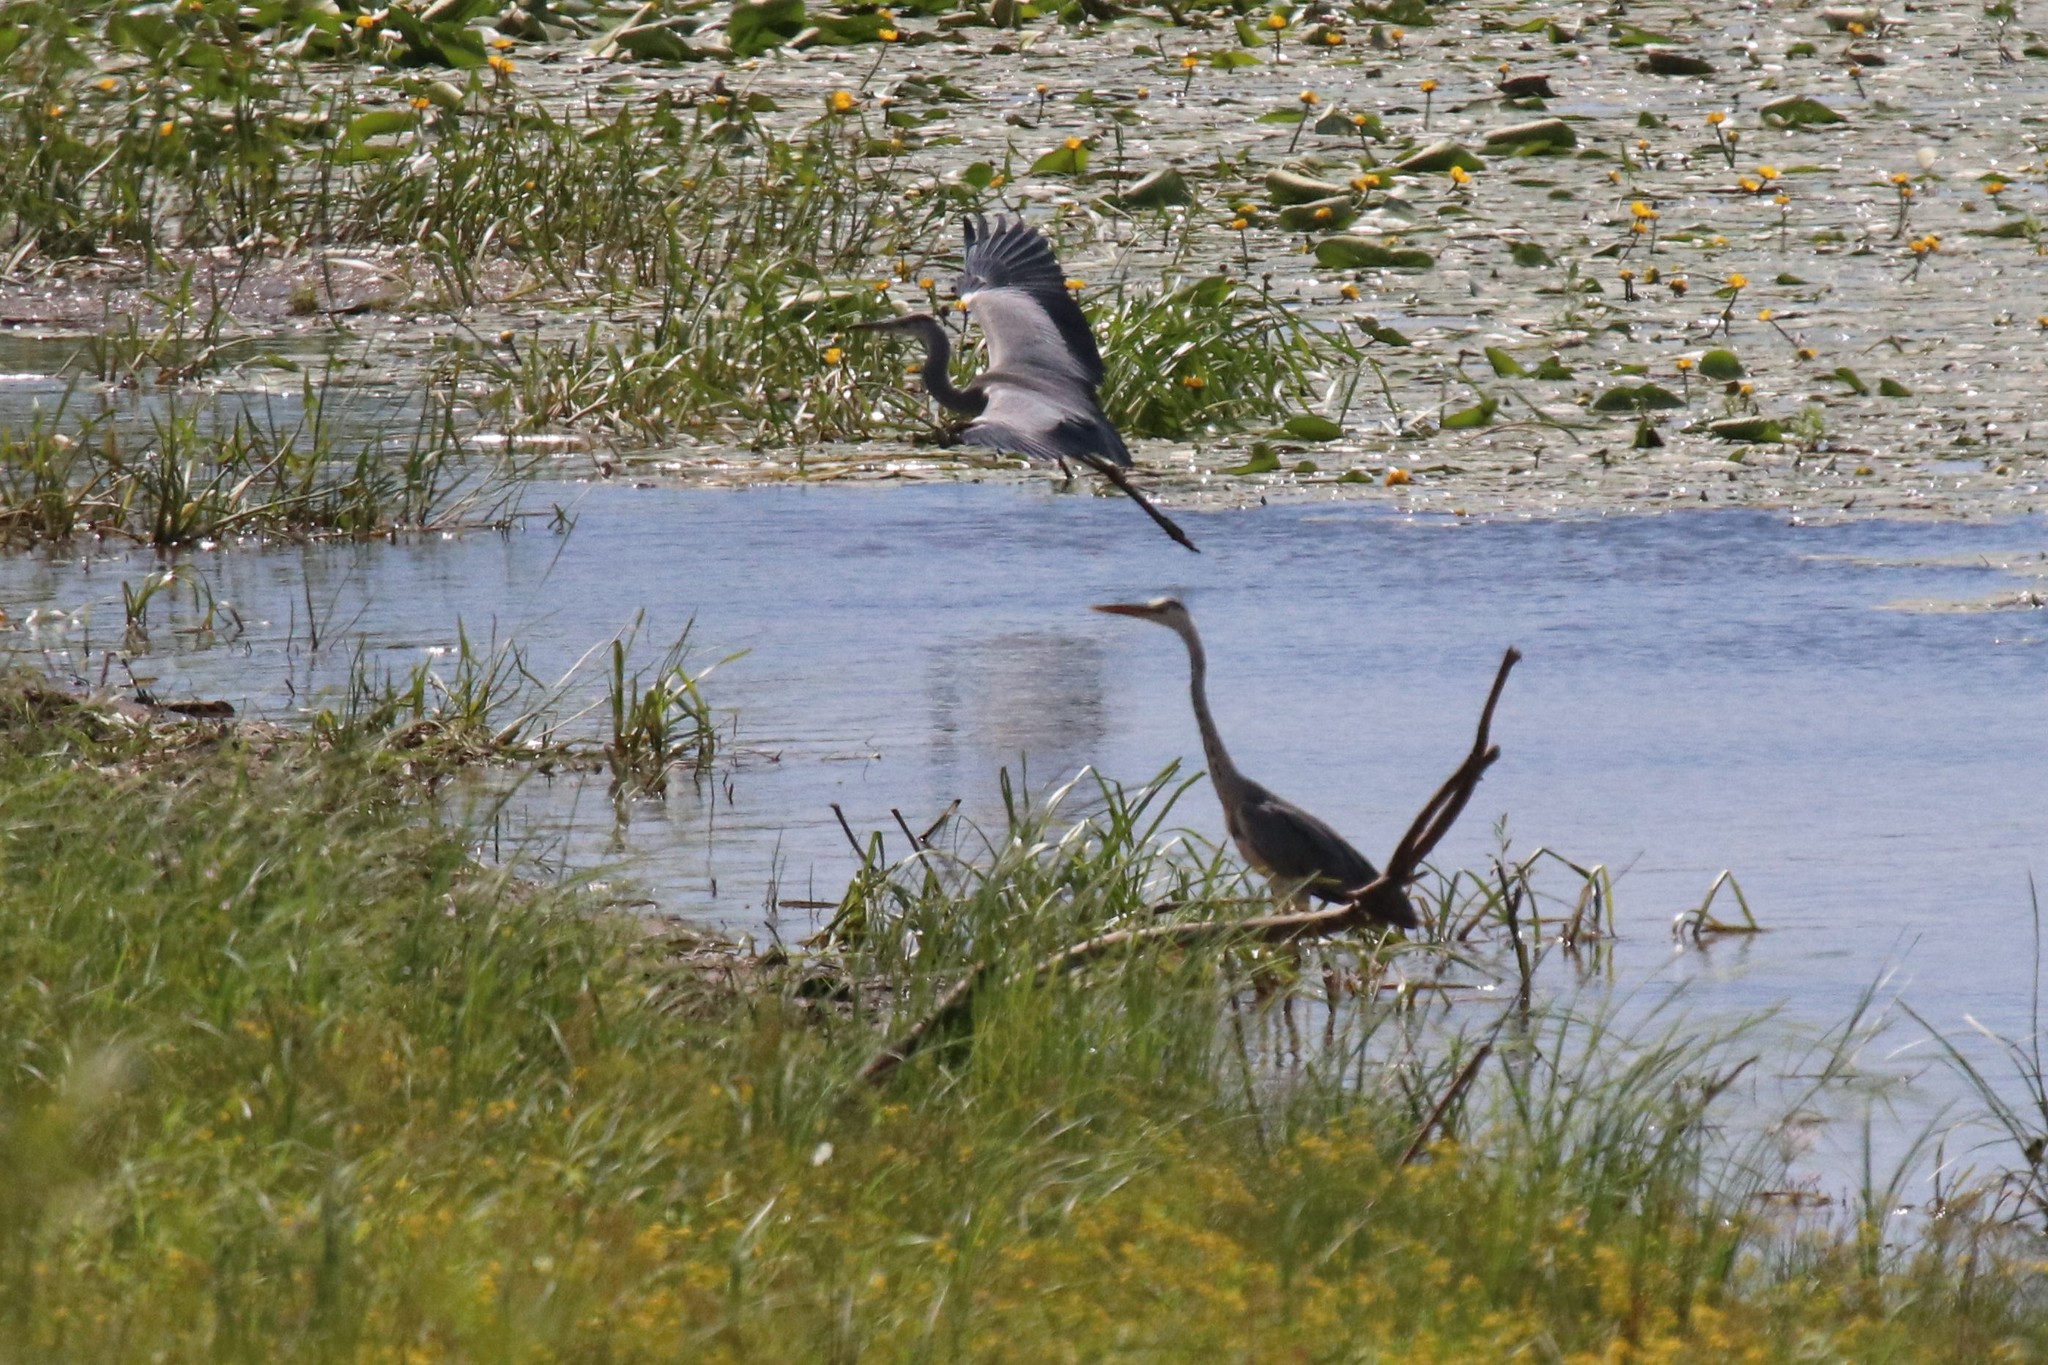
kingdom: Animalia
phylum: Chordata
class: Aves
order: Pelecaniformes
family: Ardeidae
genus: Ardea
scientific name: Ardea cinerea
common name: Grey heron
